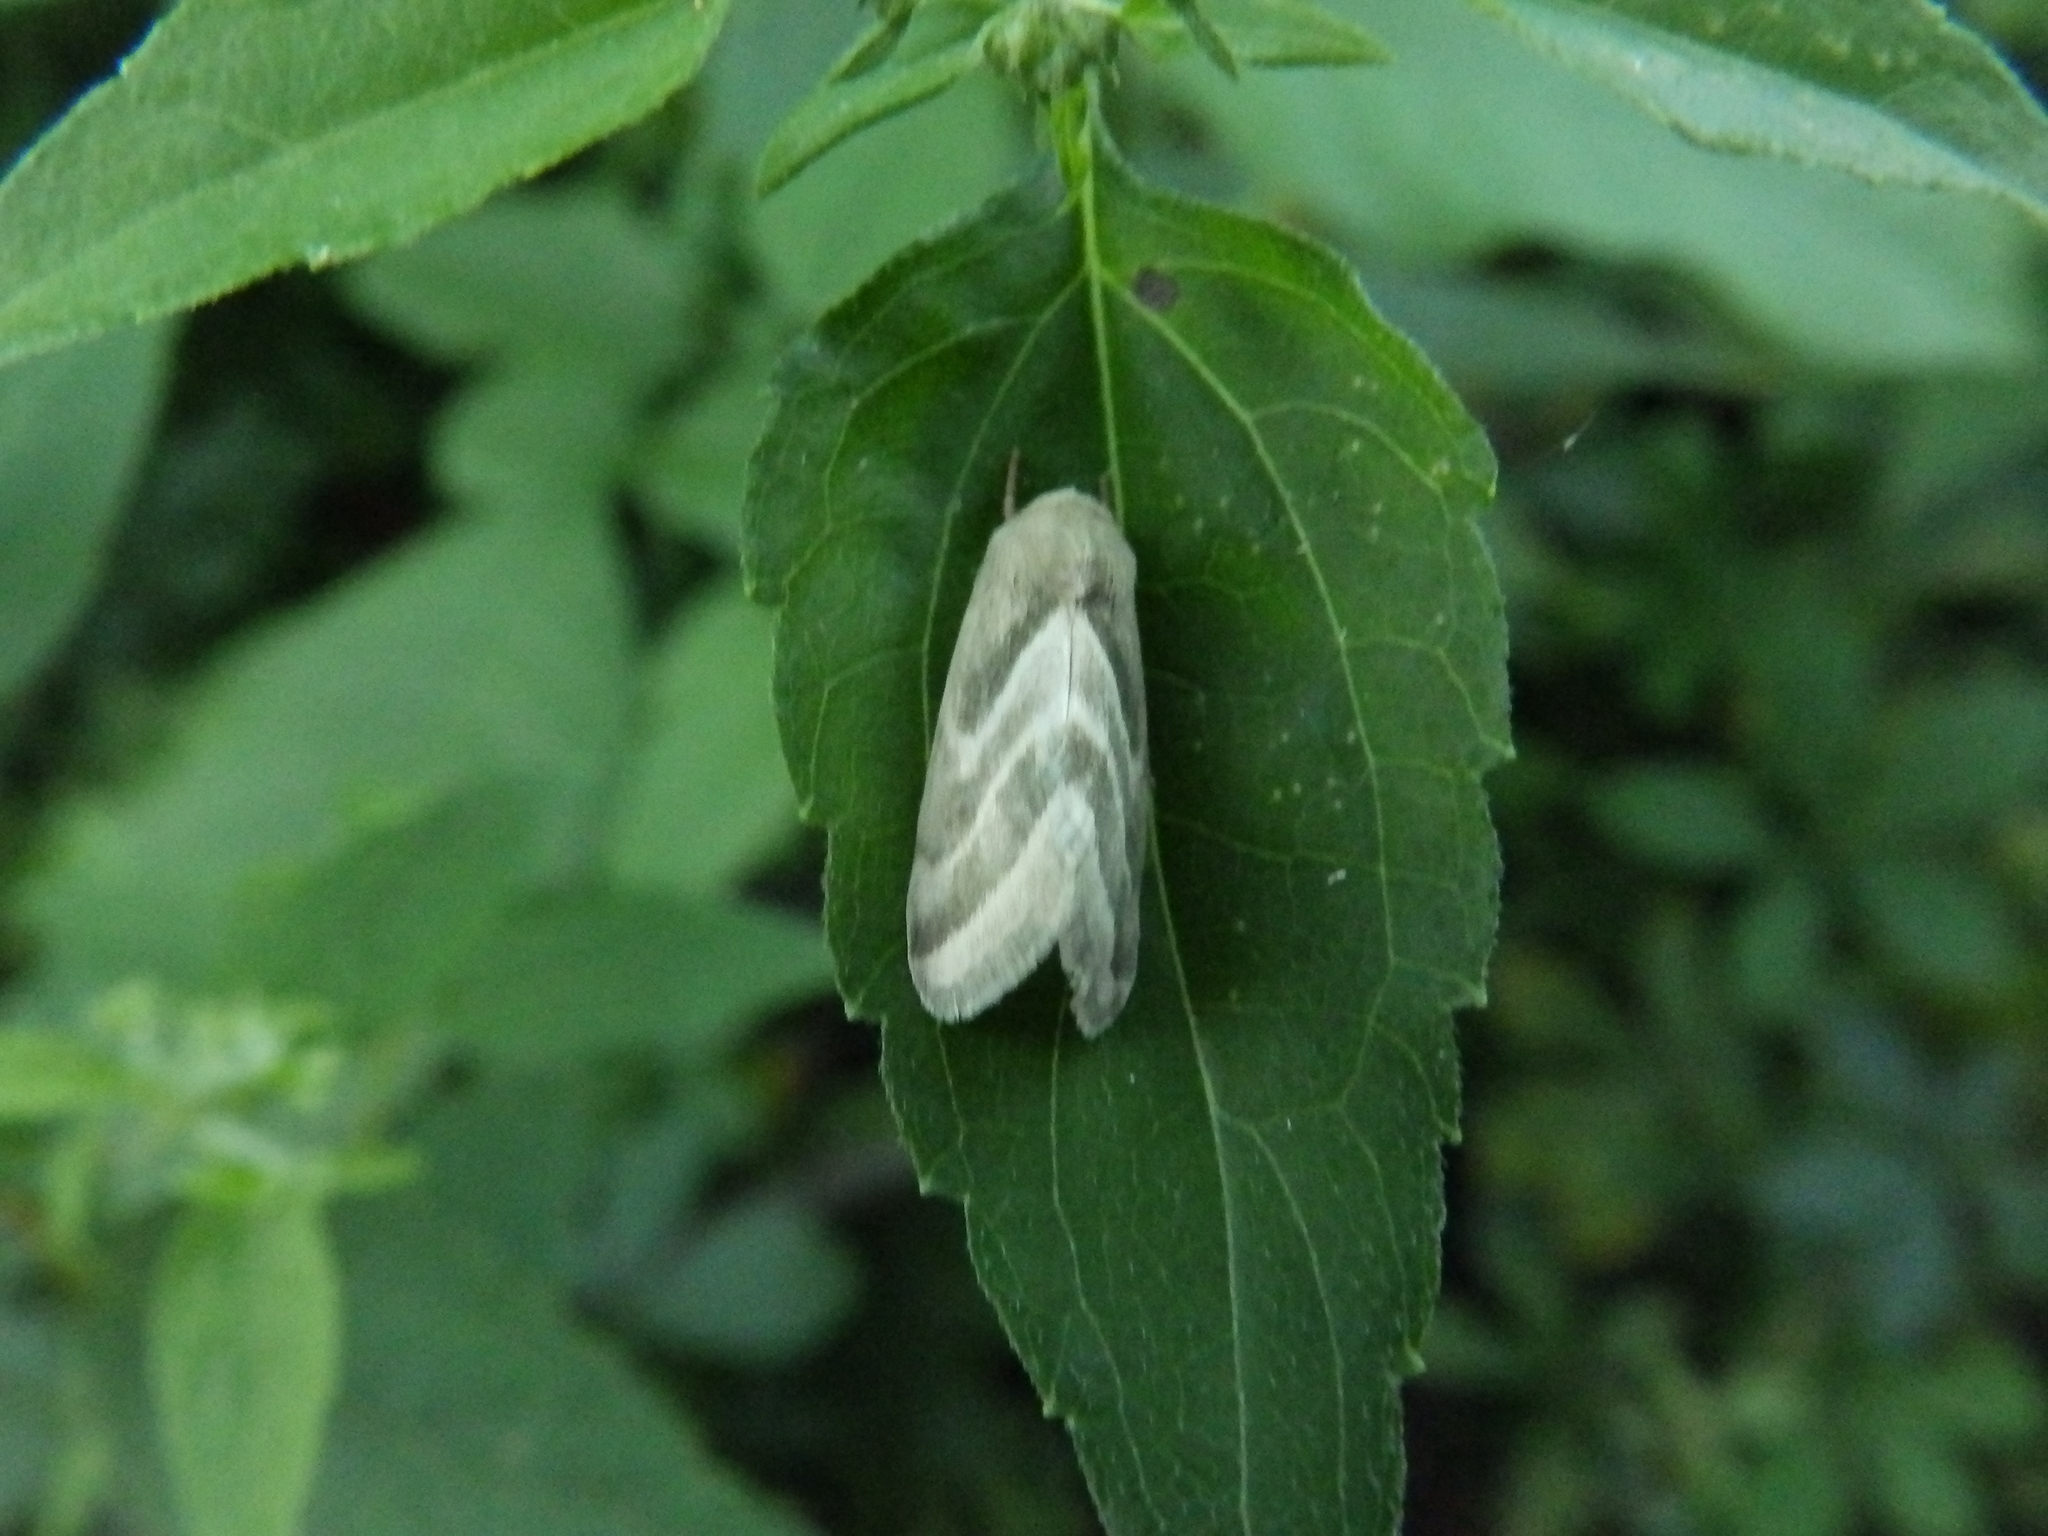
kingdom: Animalia
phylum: Arthropoda
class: Insecta
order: Lepidoptera
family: Noctuidae
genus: Schinia
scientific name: Schinia trifascia
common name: Three-lined flower moth
